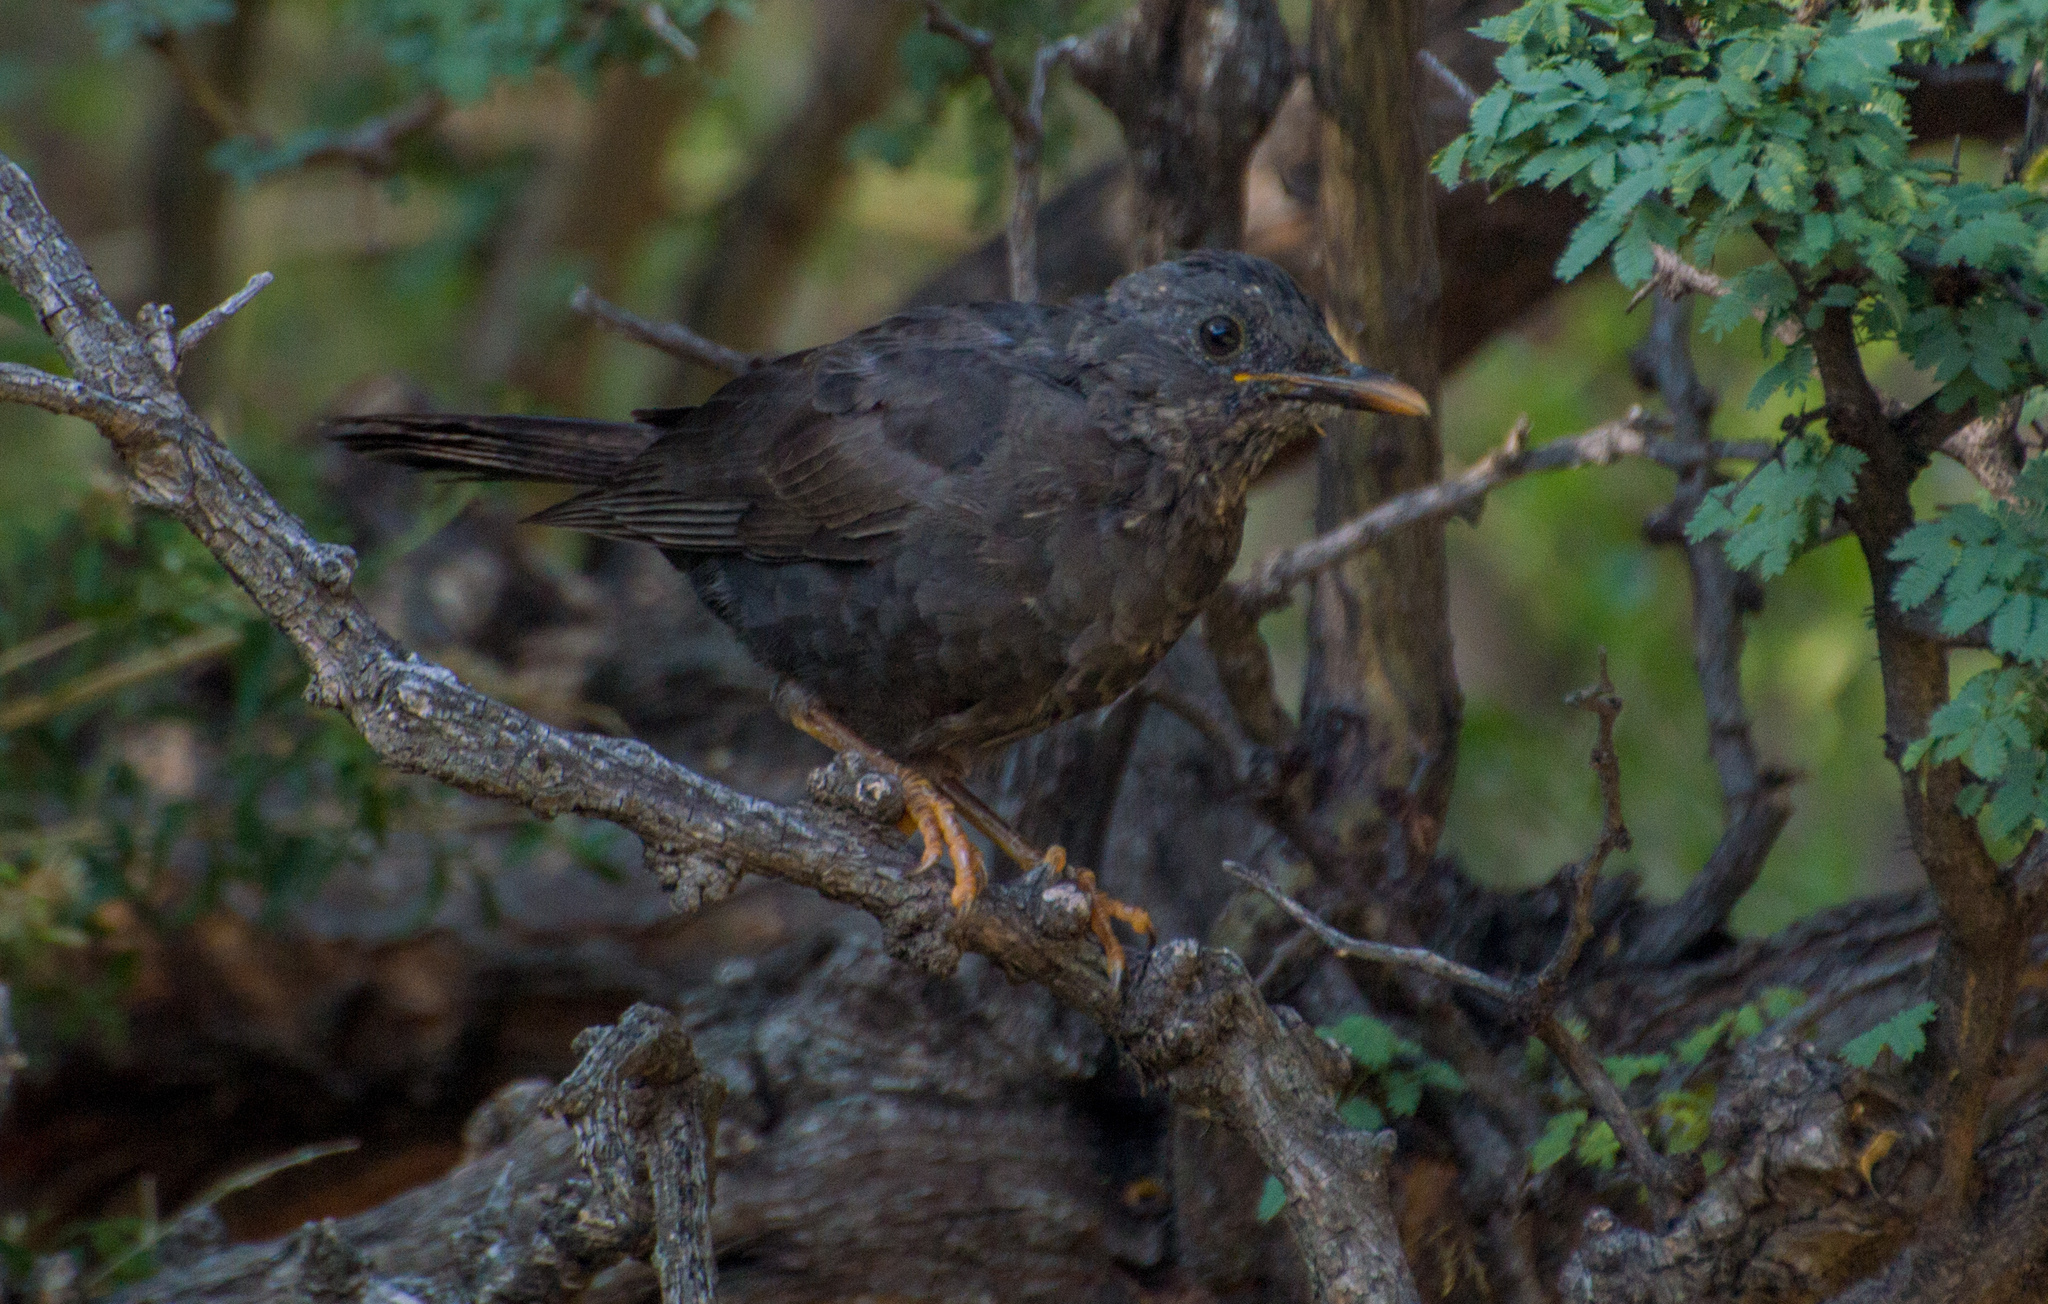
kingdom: Animalia
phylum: Chordata
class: Aves
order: Passeriformes
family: Turdidae
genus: Turdus
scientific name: Turdus chiguanco
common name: Chiguanco thrush
